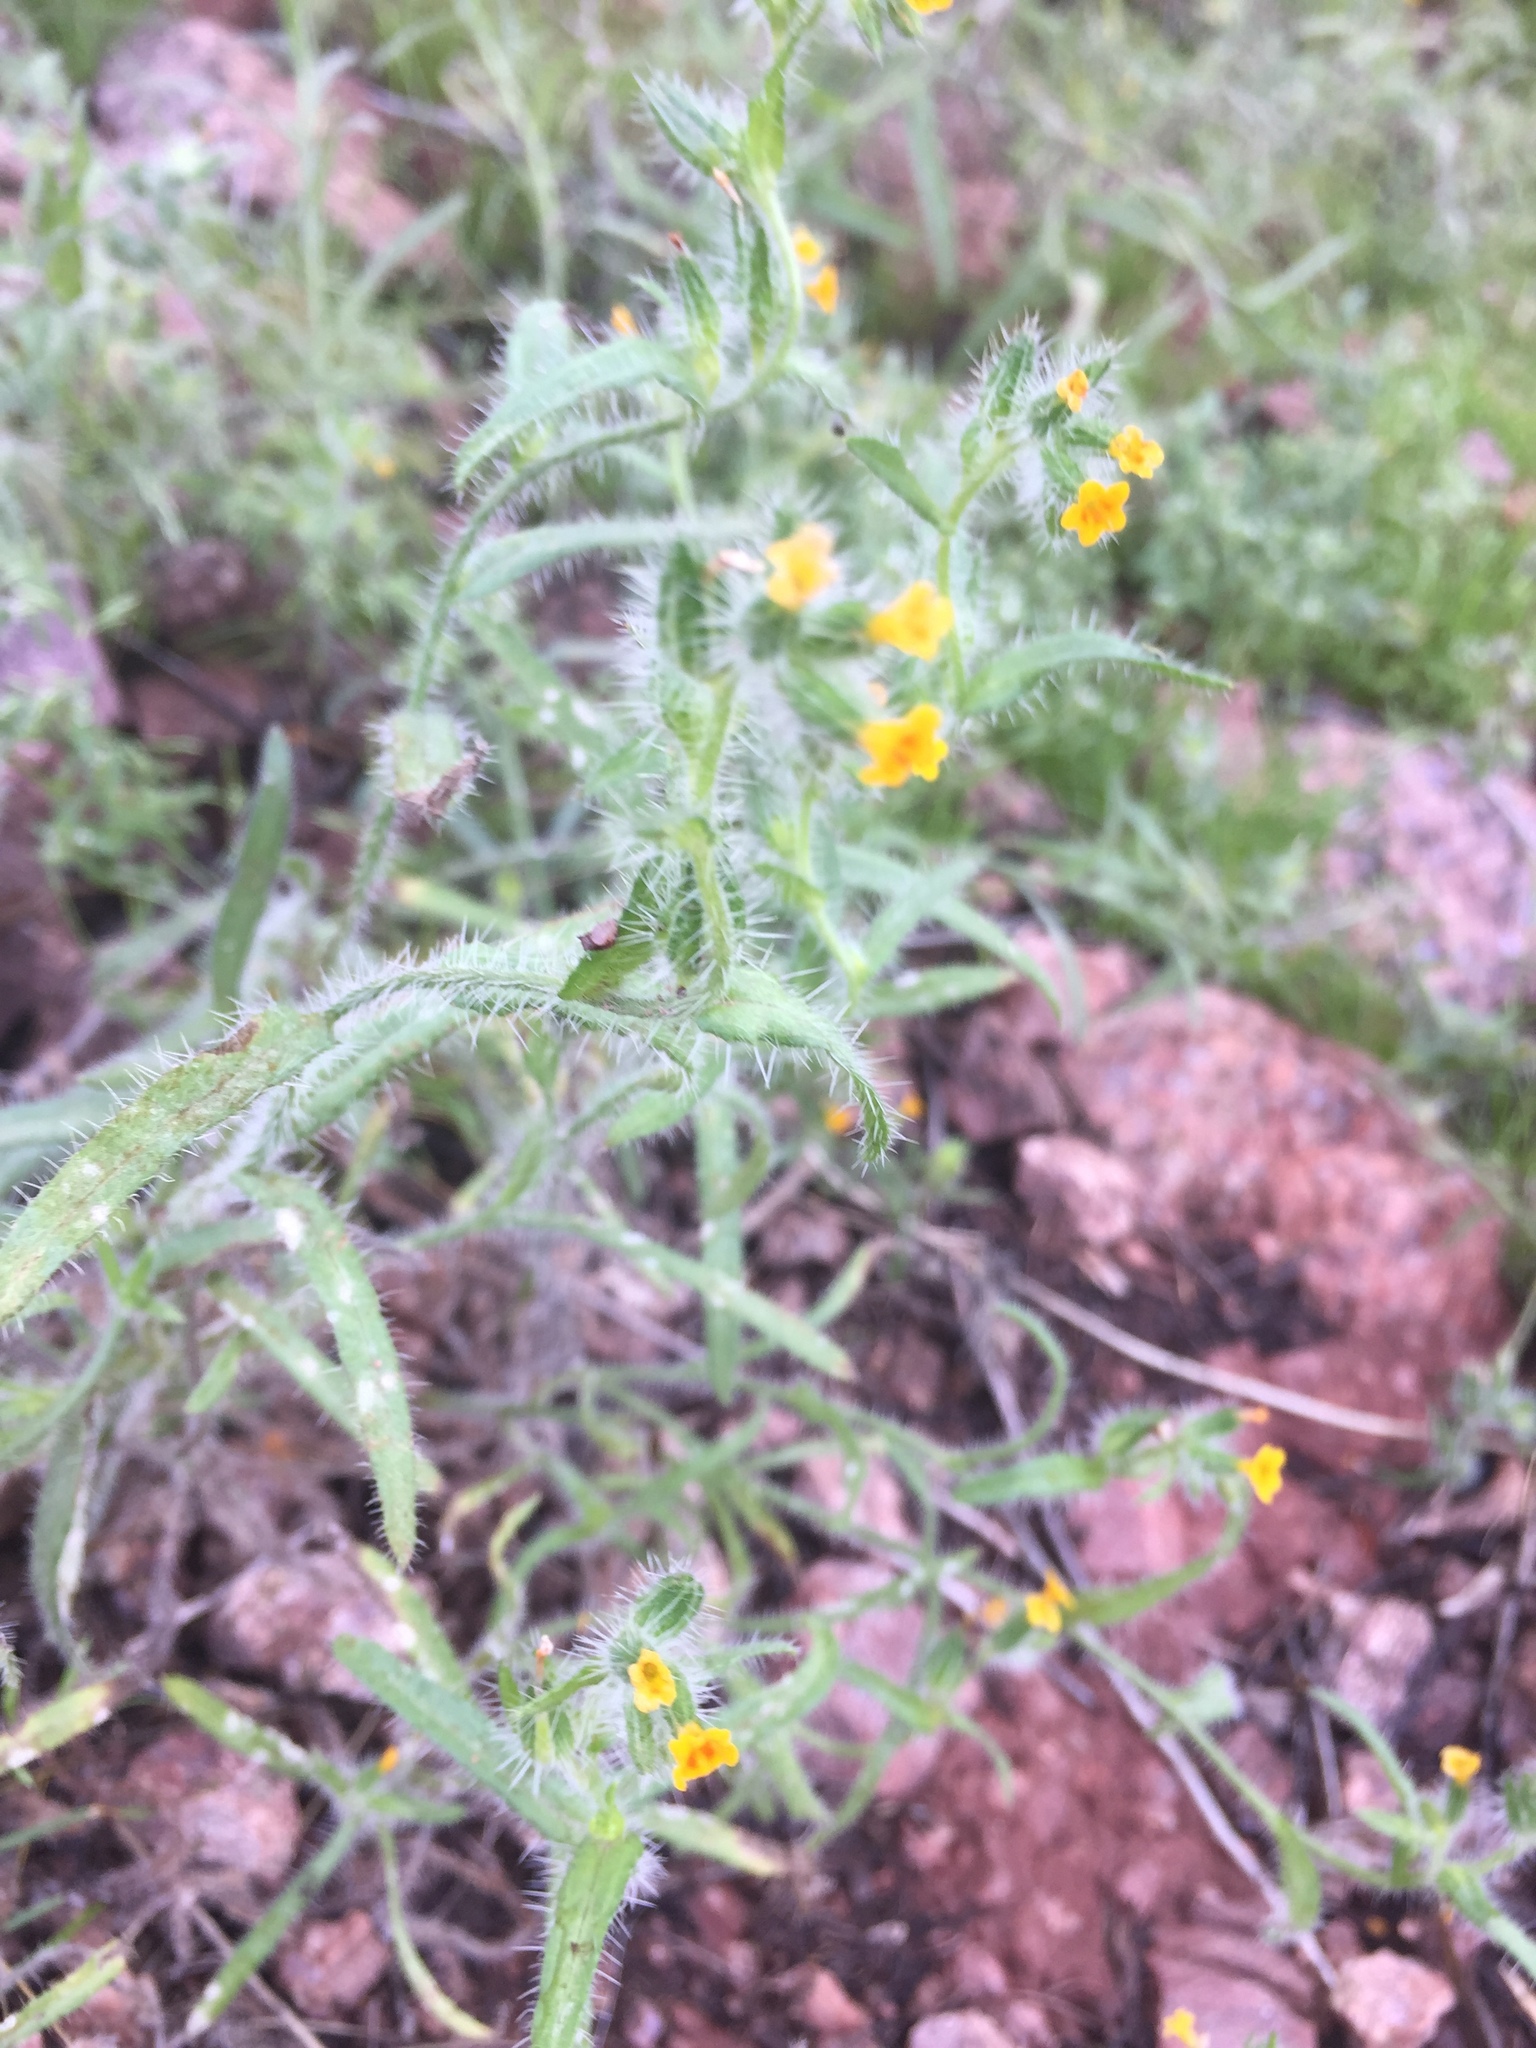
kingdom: Plantae
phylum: Tracheophyta
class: Magnoliopsida
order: Boraginales
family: Boraginaceae
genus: Amsinckia
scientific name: Amsinckia menziesii
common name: Menzies' fiddleneck
